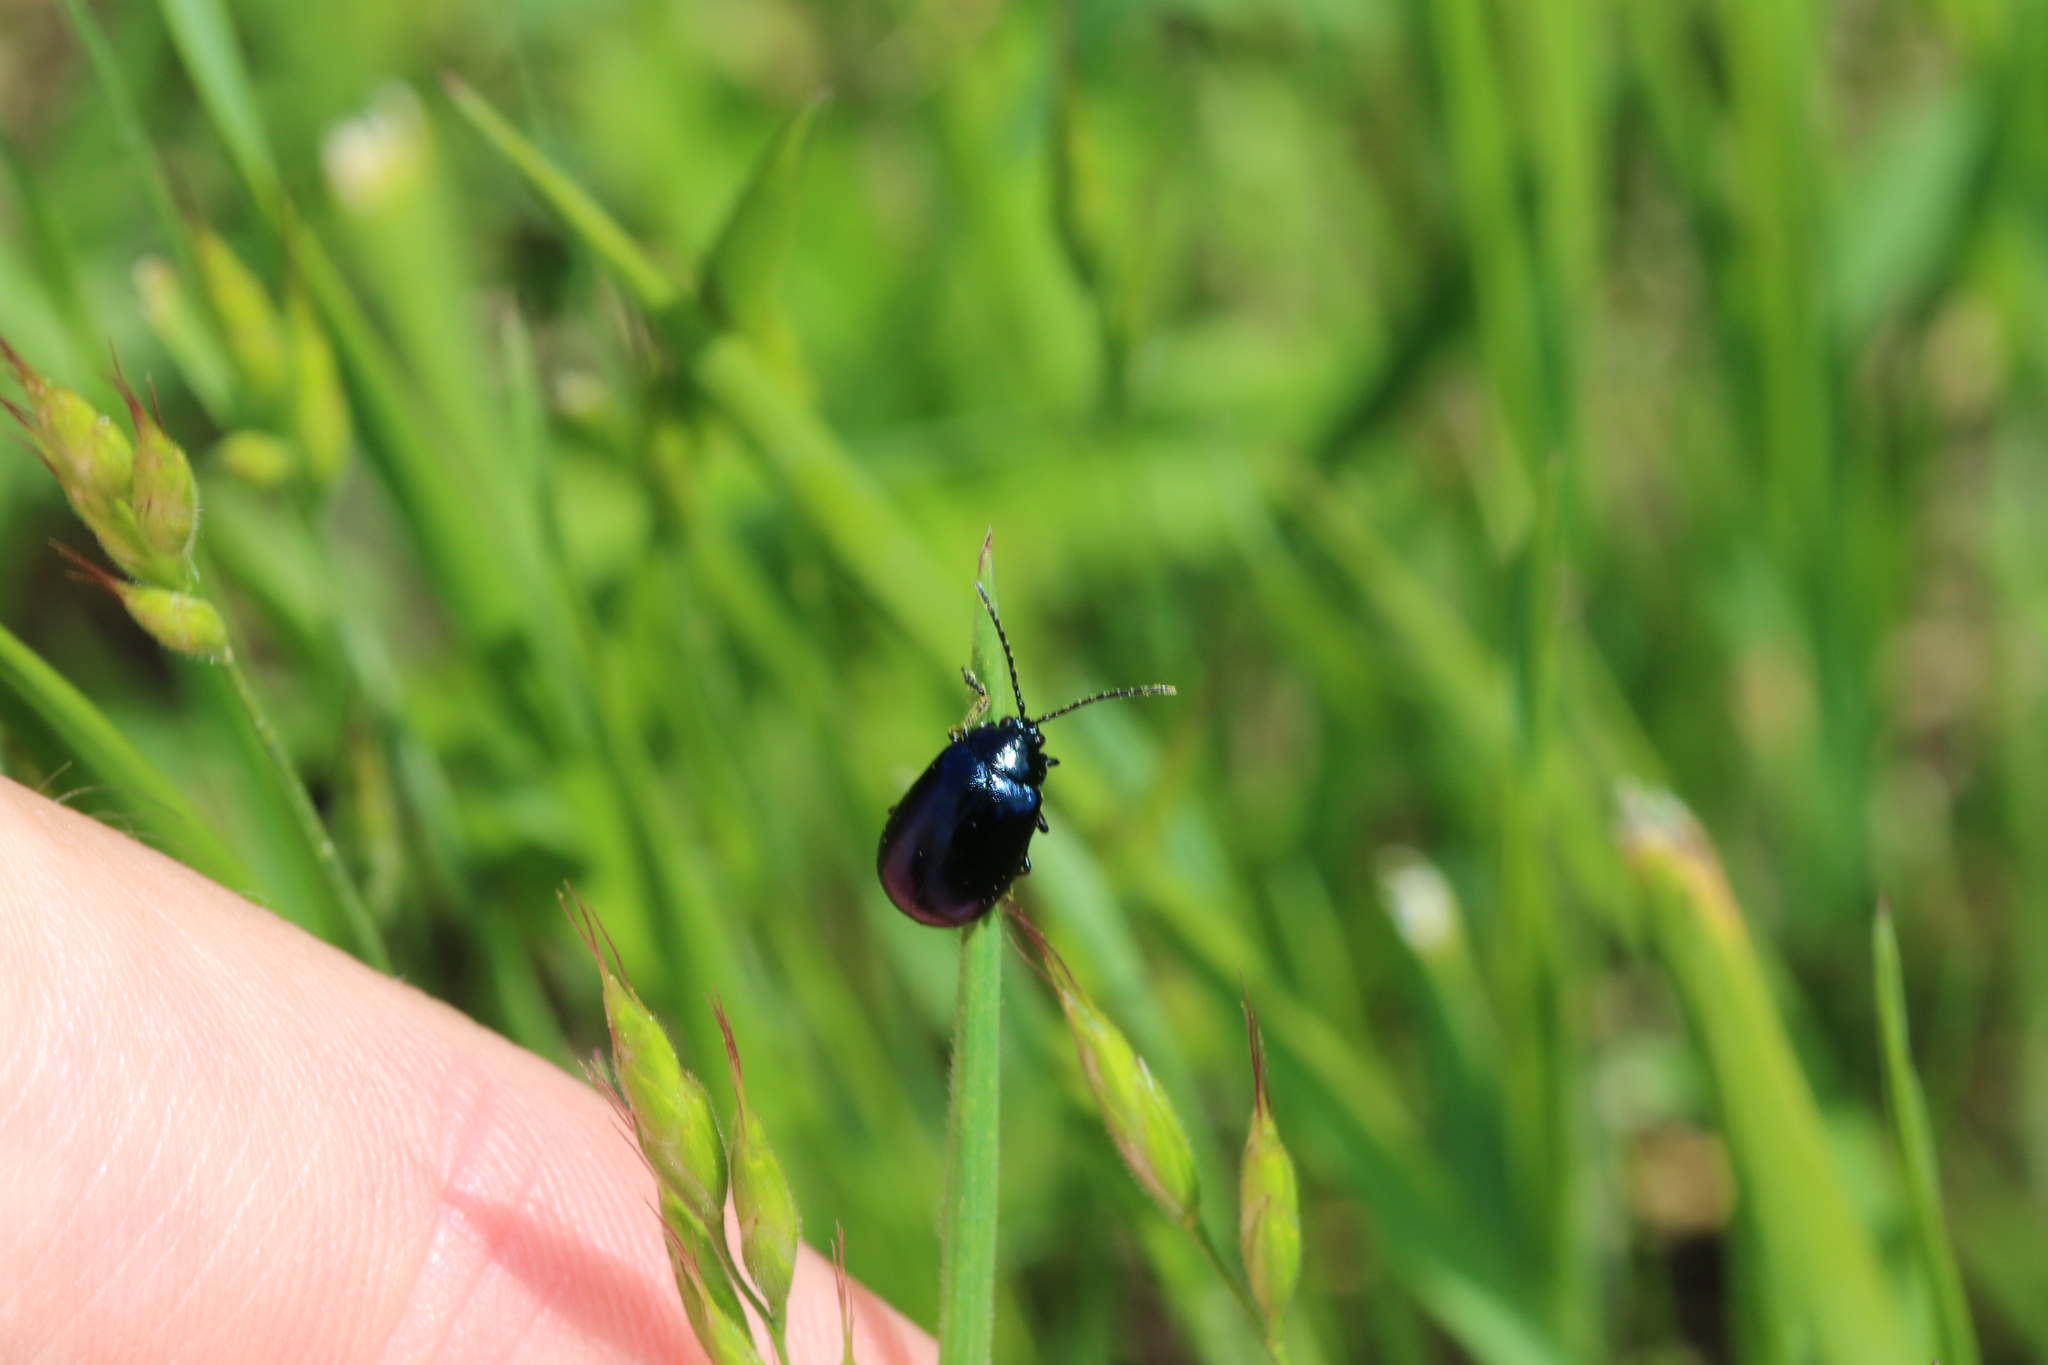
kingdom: Animalia
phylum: Arthropoda
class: Insecta
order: Coleoptera
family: Chrysomelidae
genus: Agelastica
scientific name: Agelastica alni
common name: Alder leaf beetle
